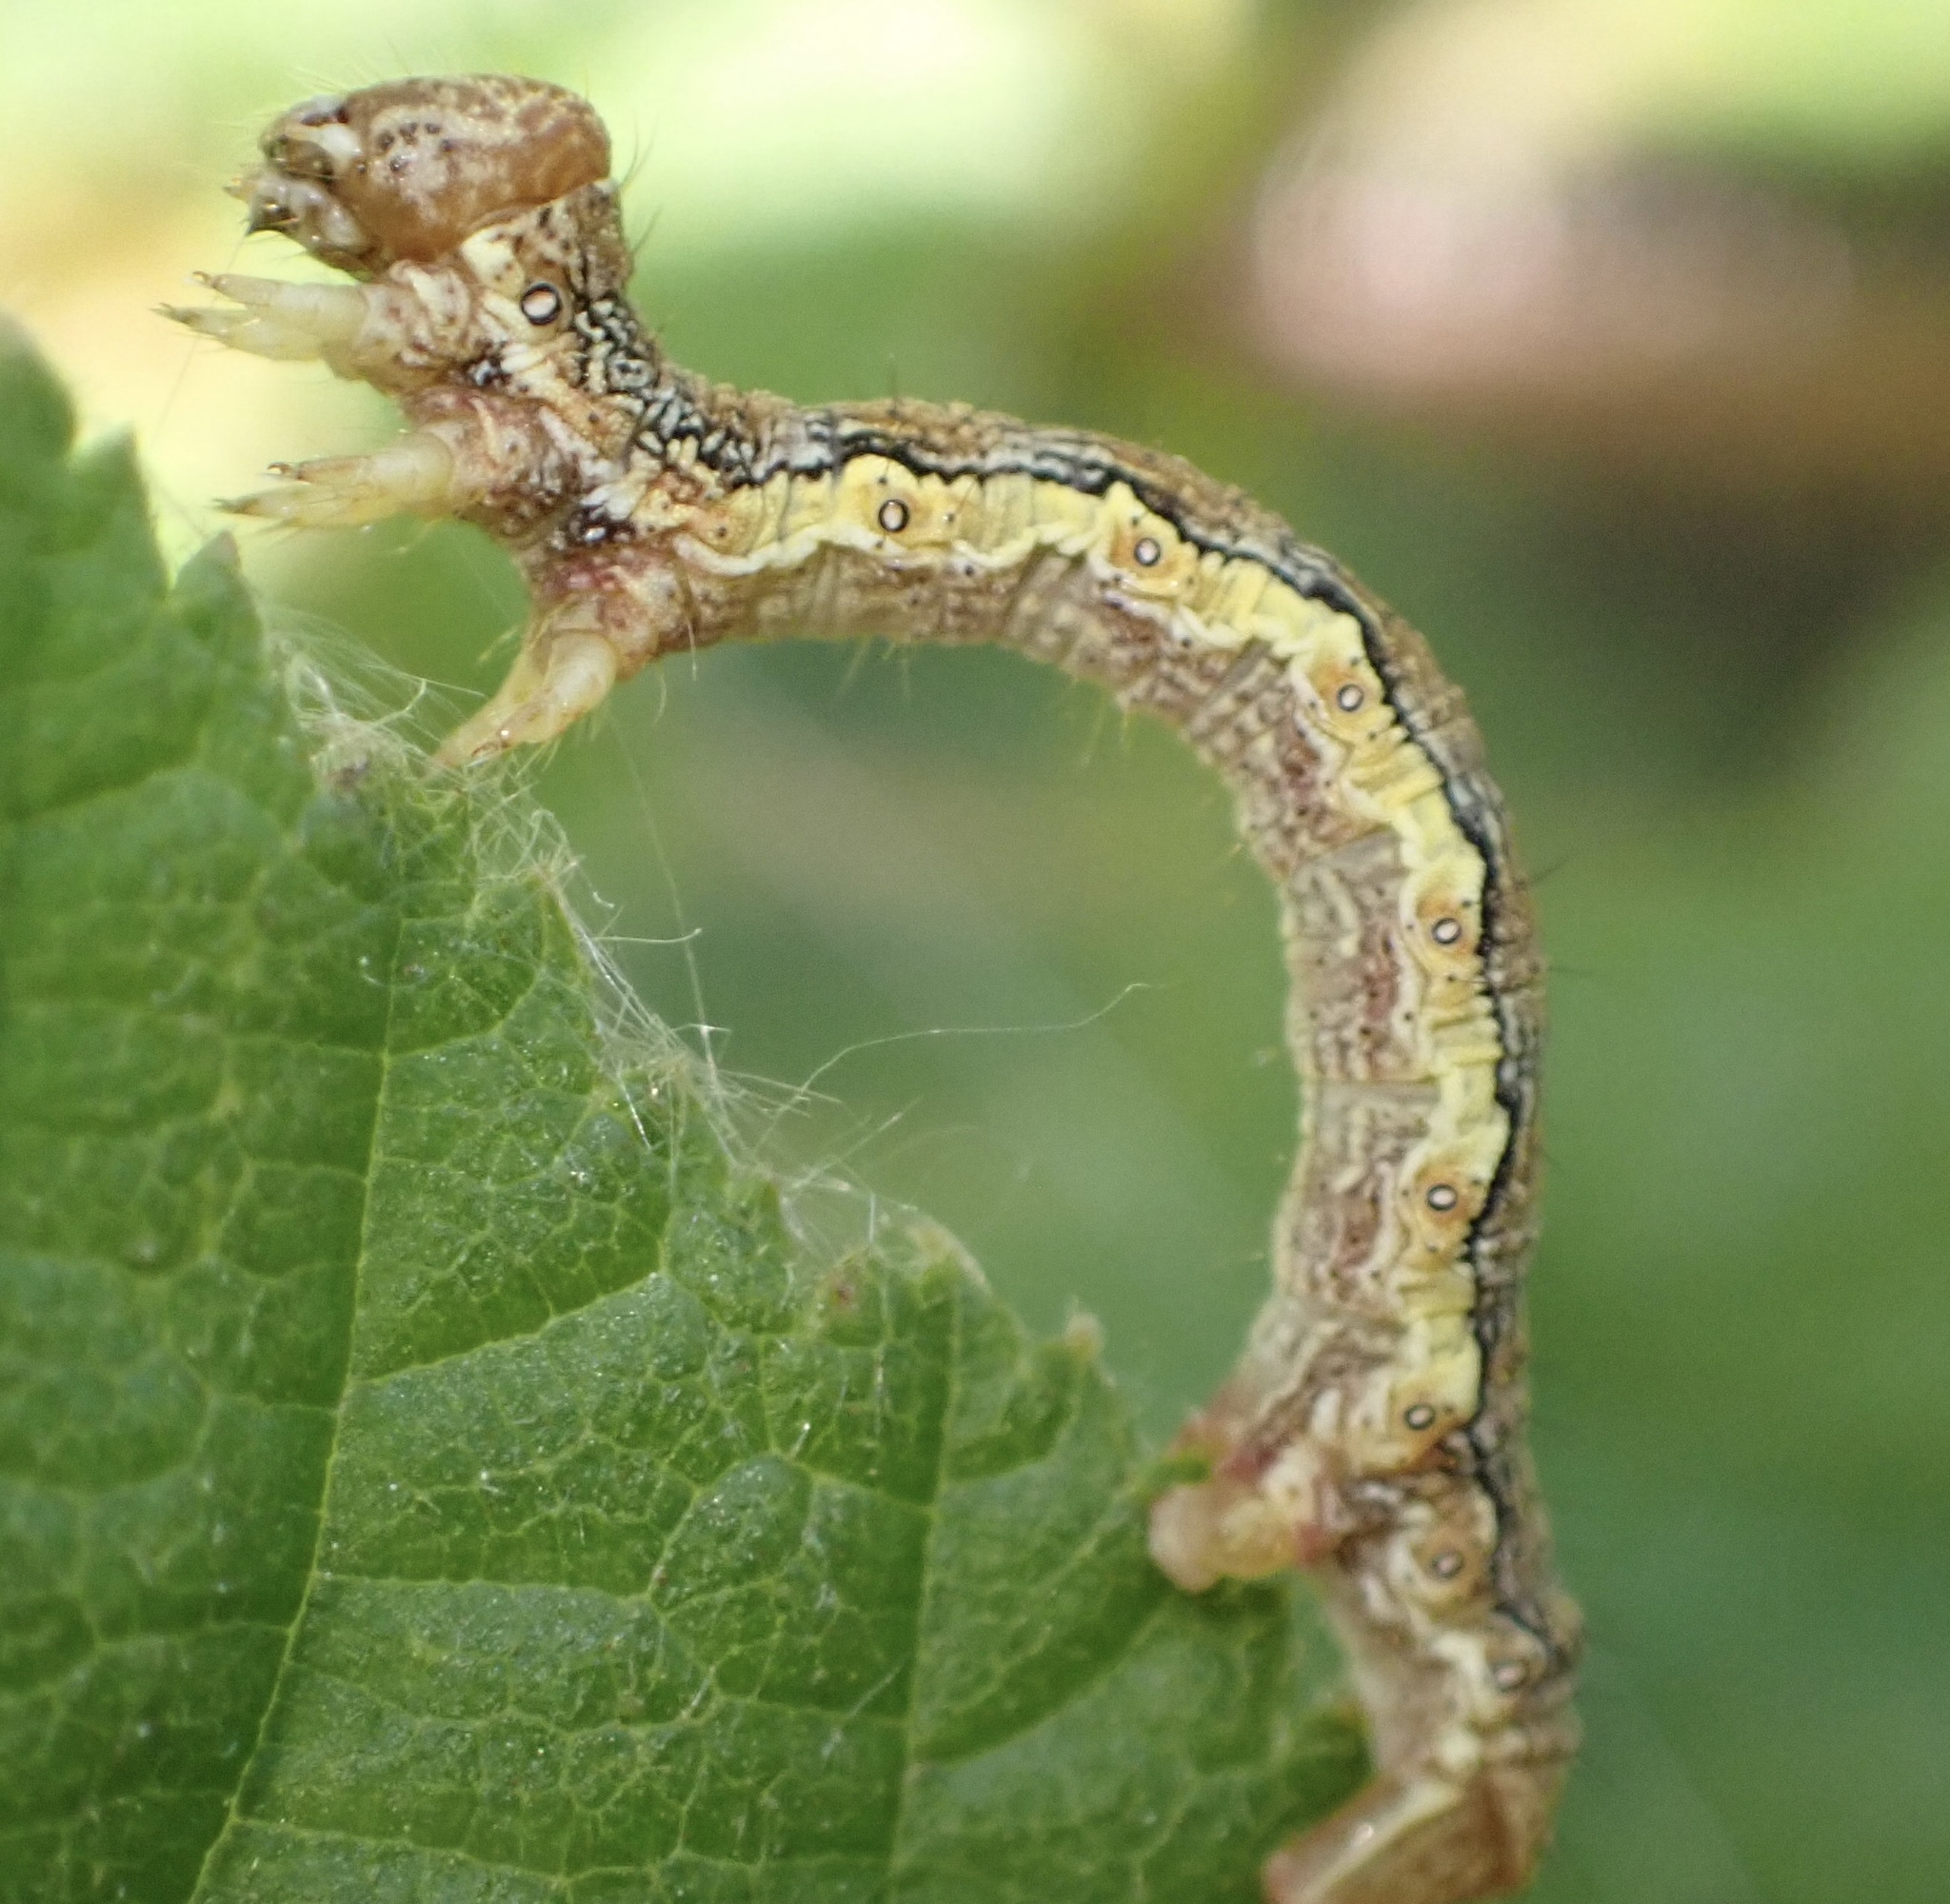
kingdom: Animalia
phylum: Arthropoda
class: Insecta
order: Lepidoptera
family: Geometridae
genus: Erannis
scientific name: Erannis defoliaria
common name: Mottled umber
